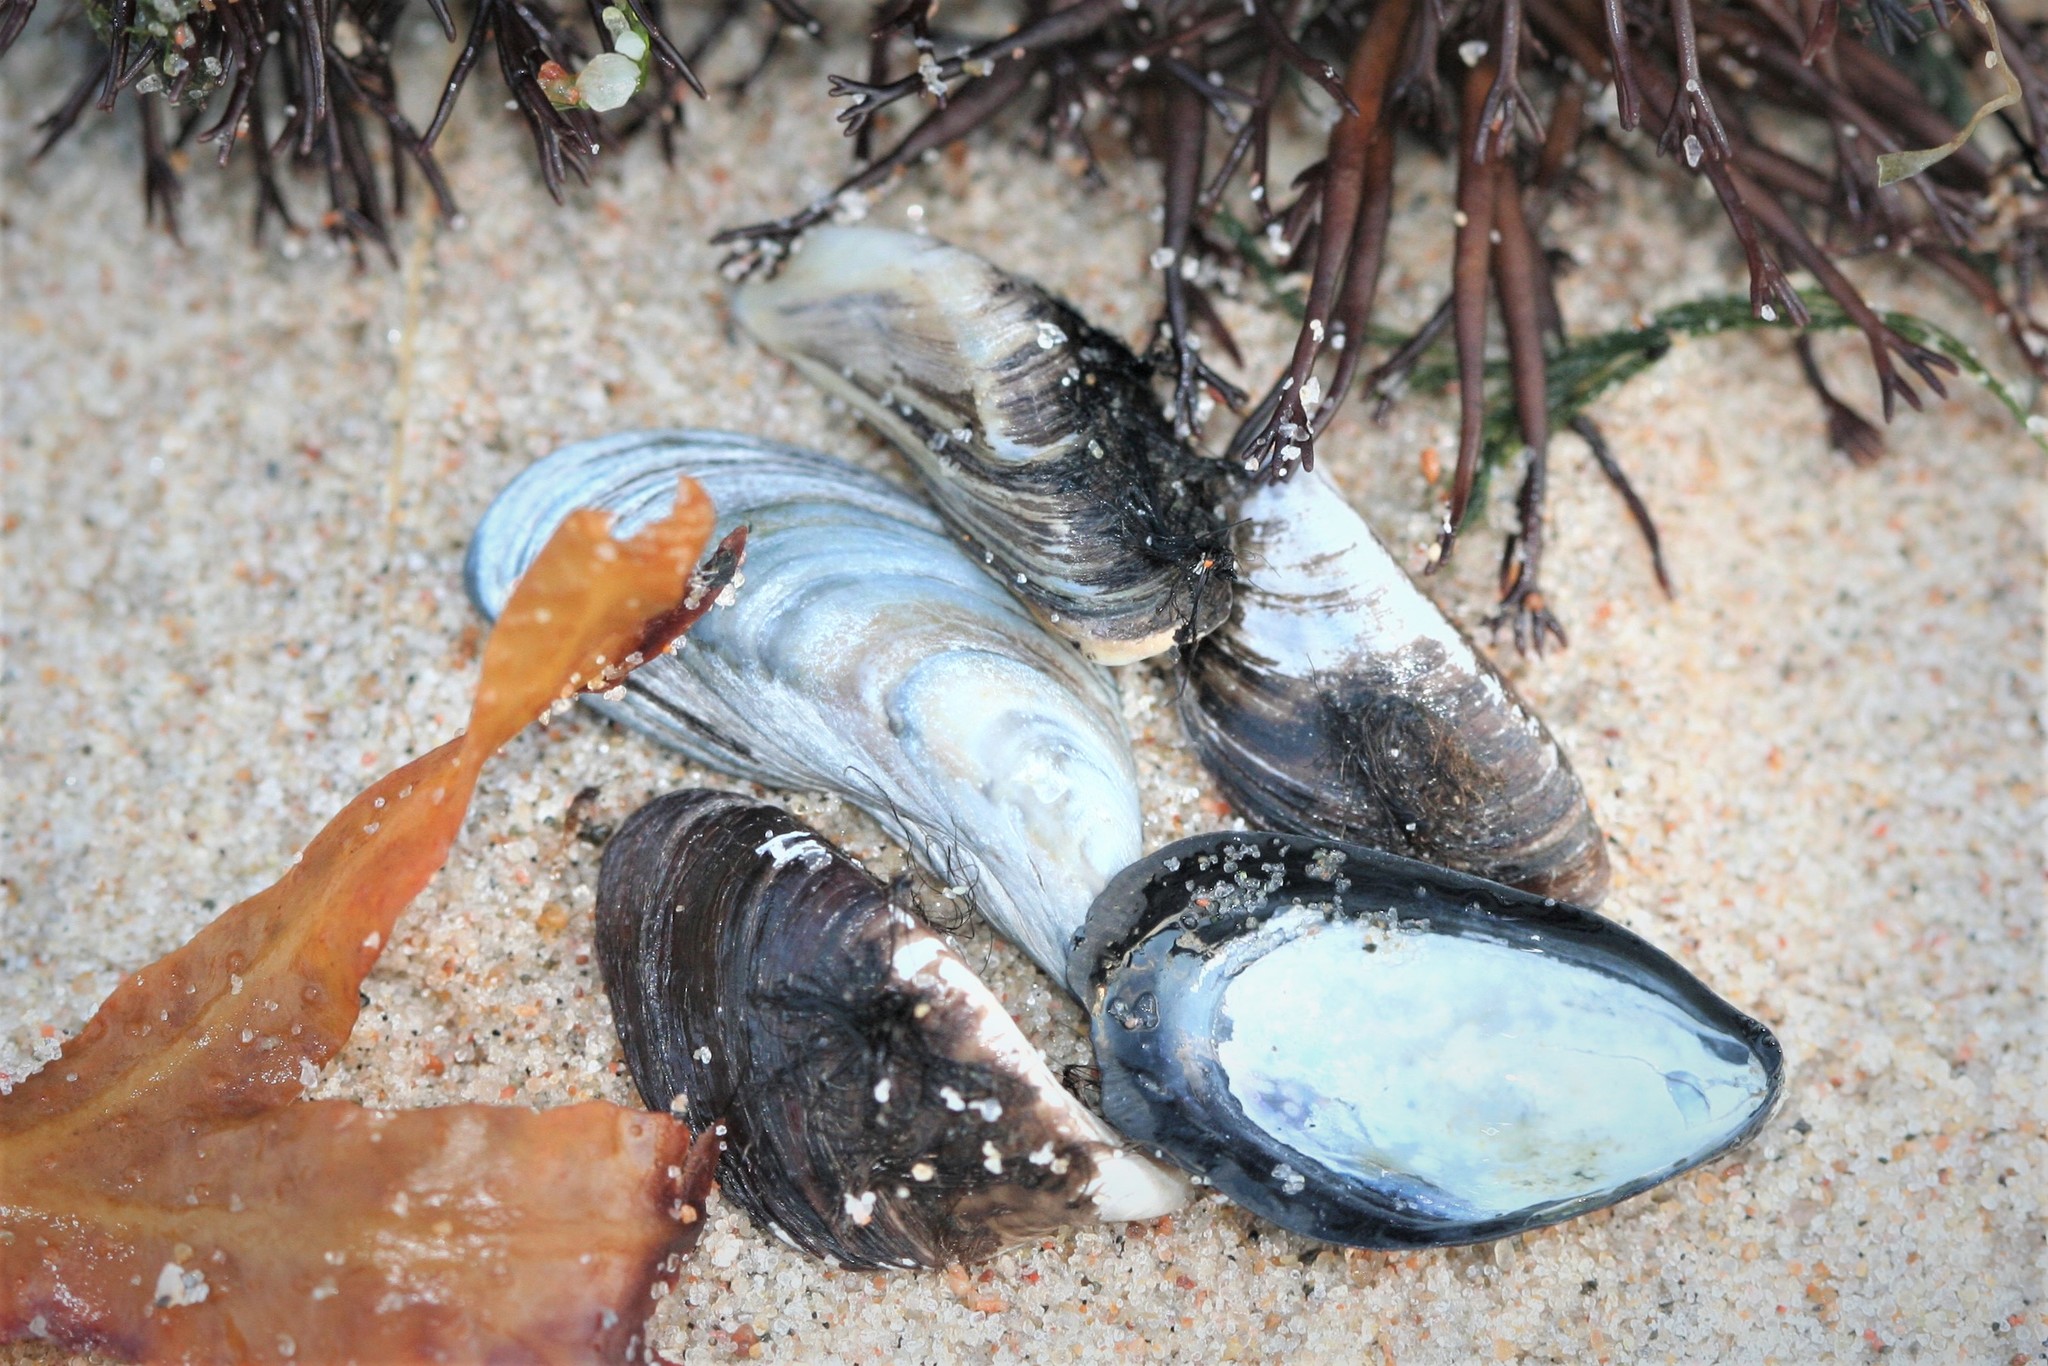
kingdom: Animalia
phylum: Mollusca
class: Bivalvia
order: Mytilida
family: Mytilidae
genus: Mytilus
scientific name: Mytilus
